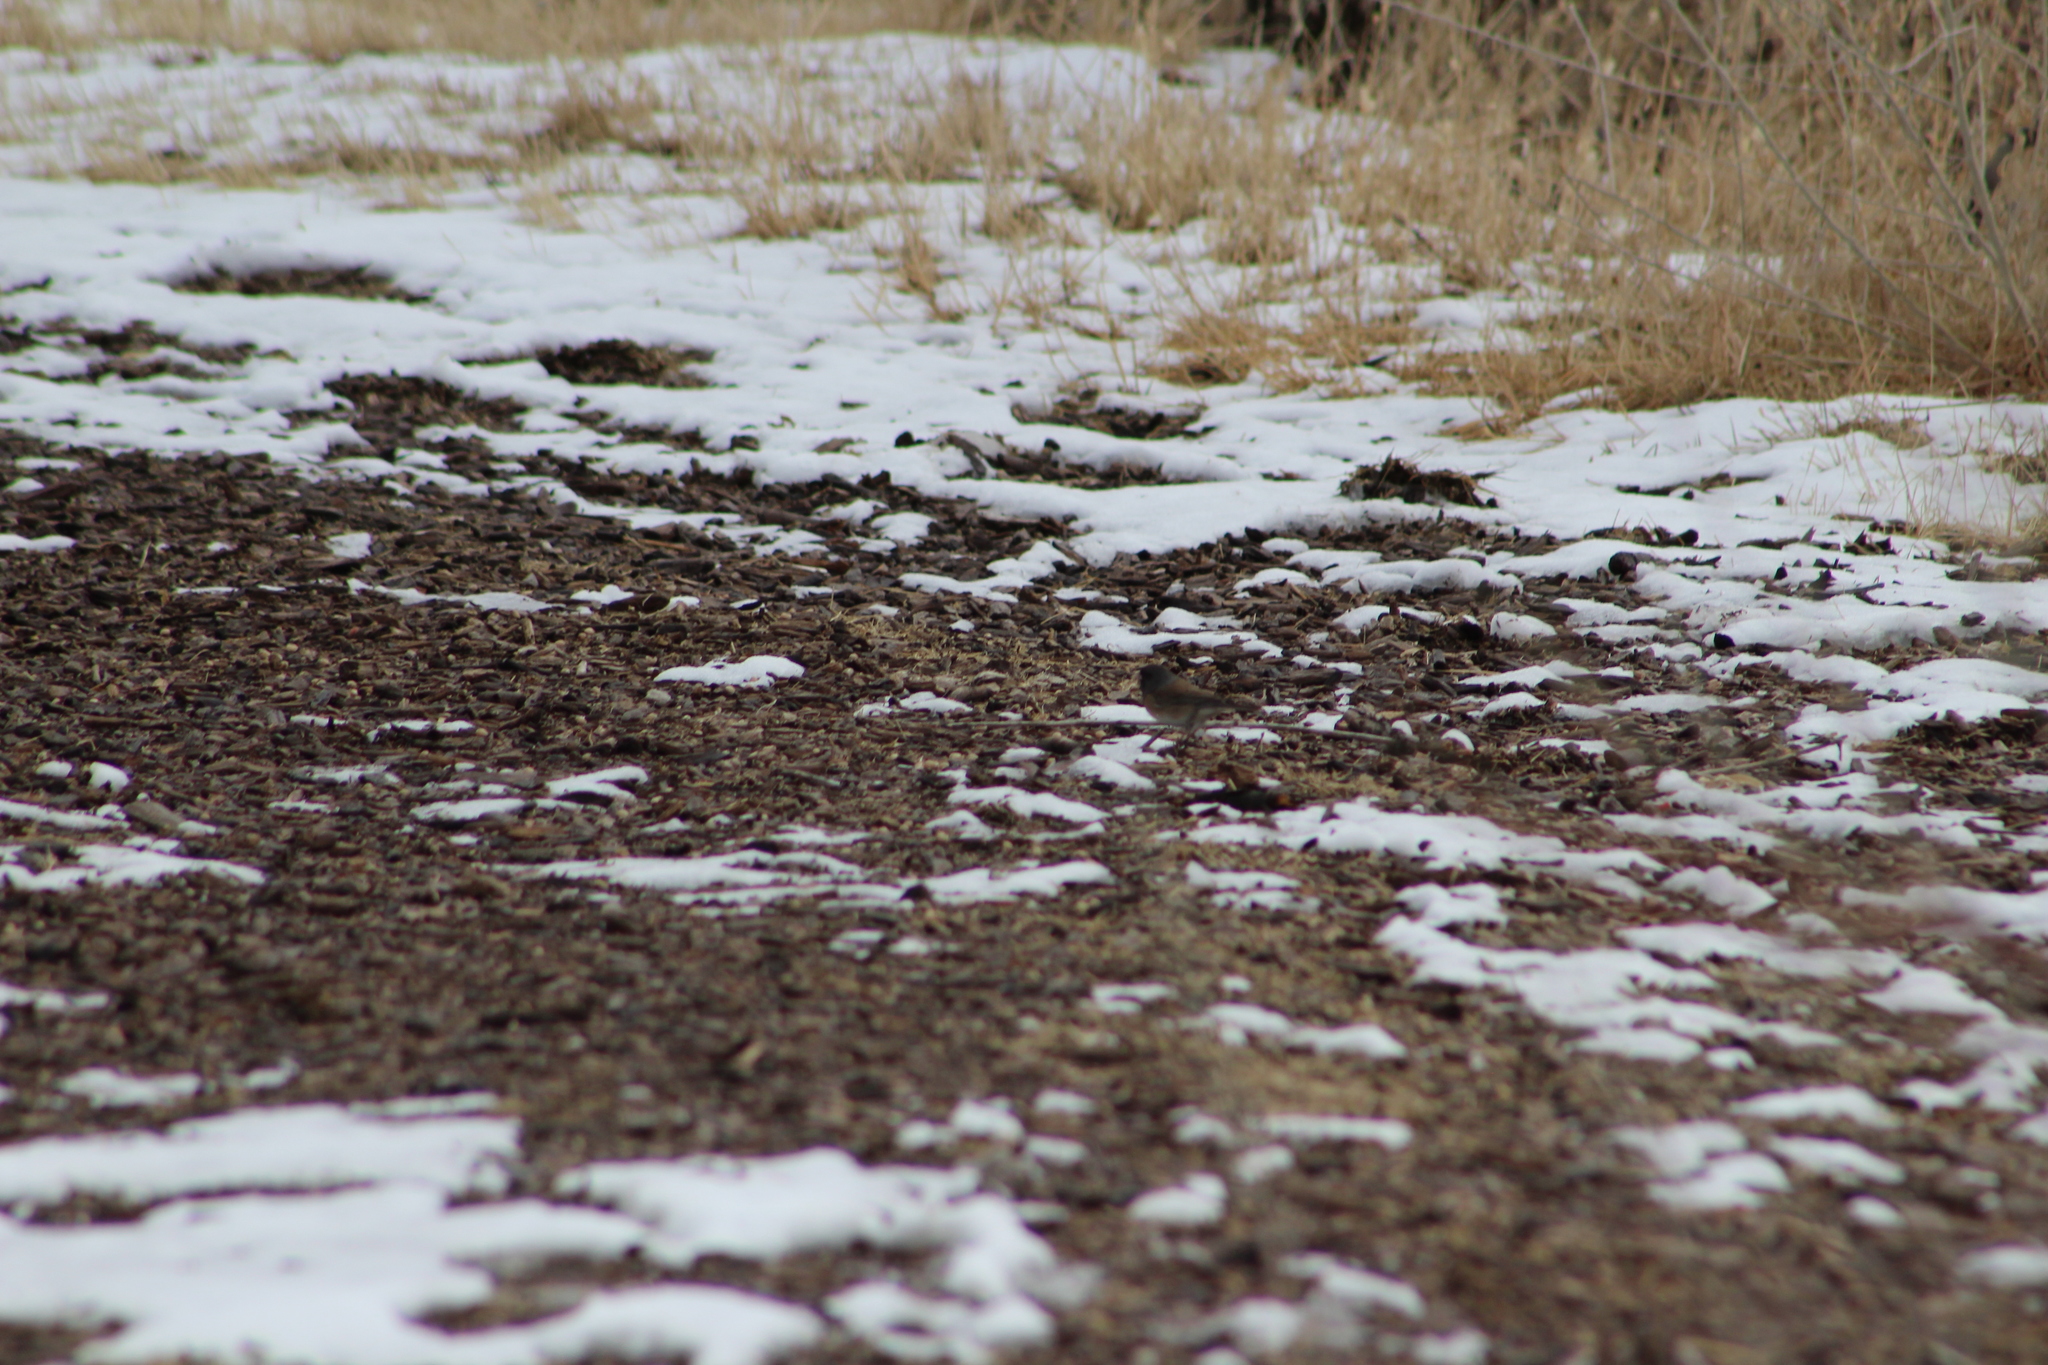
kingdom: Animalia
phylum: Chordata
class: Aves
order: Passeriformes
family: Passerellidae
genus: Junco
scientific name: Junco hyemalis
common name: Dark-eyed junco
